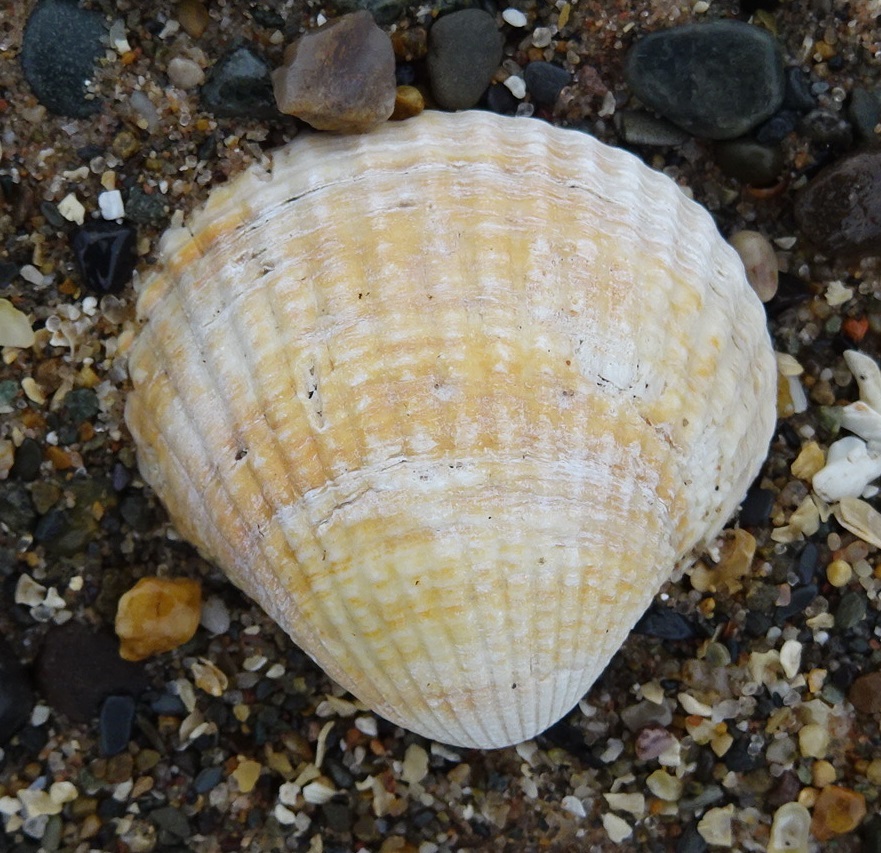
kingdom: Animalia
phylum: Mollusca
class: Bivalvia
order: Cardiida
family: Cardiidae
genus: Cerastoderma
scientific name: Cerastoderma edule
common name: Common cockle
